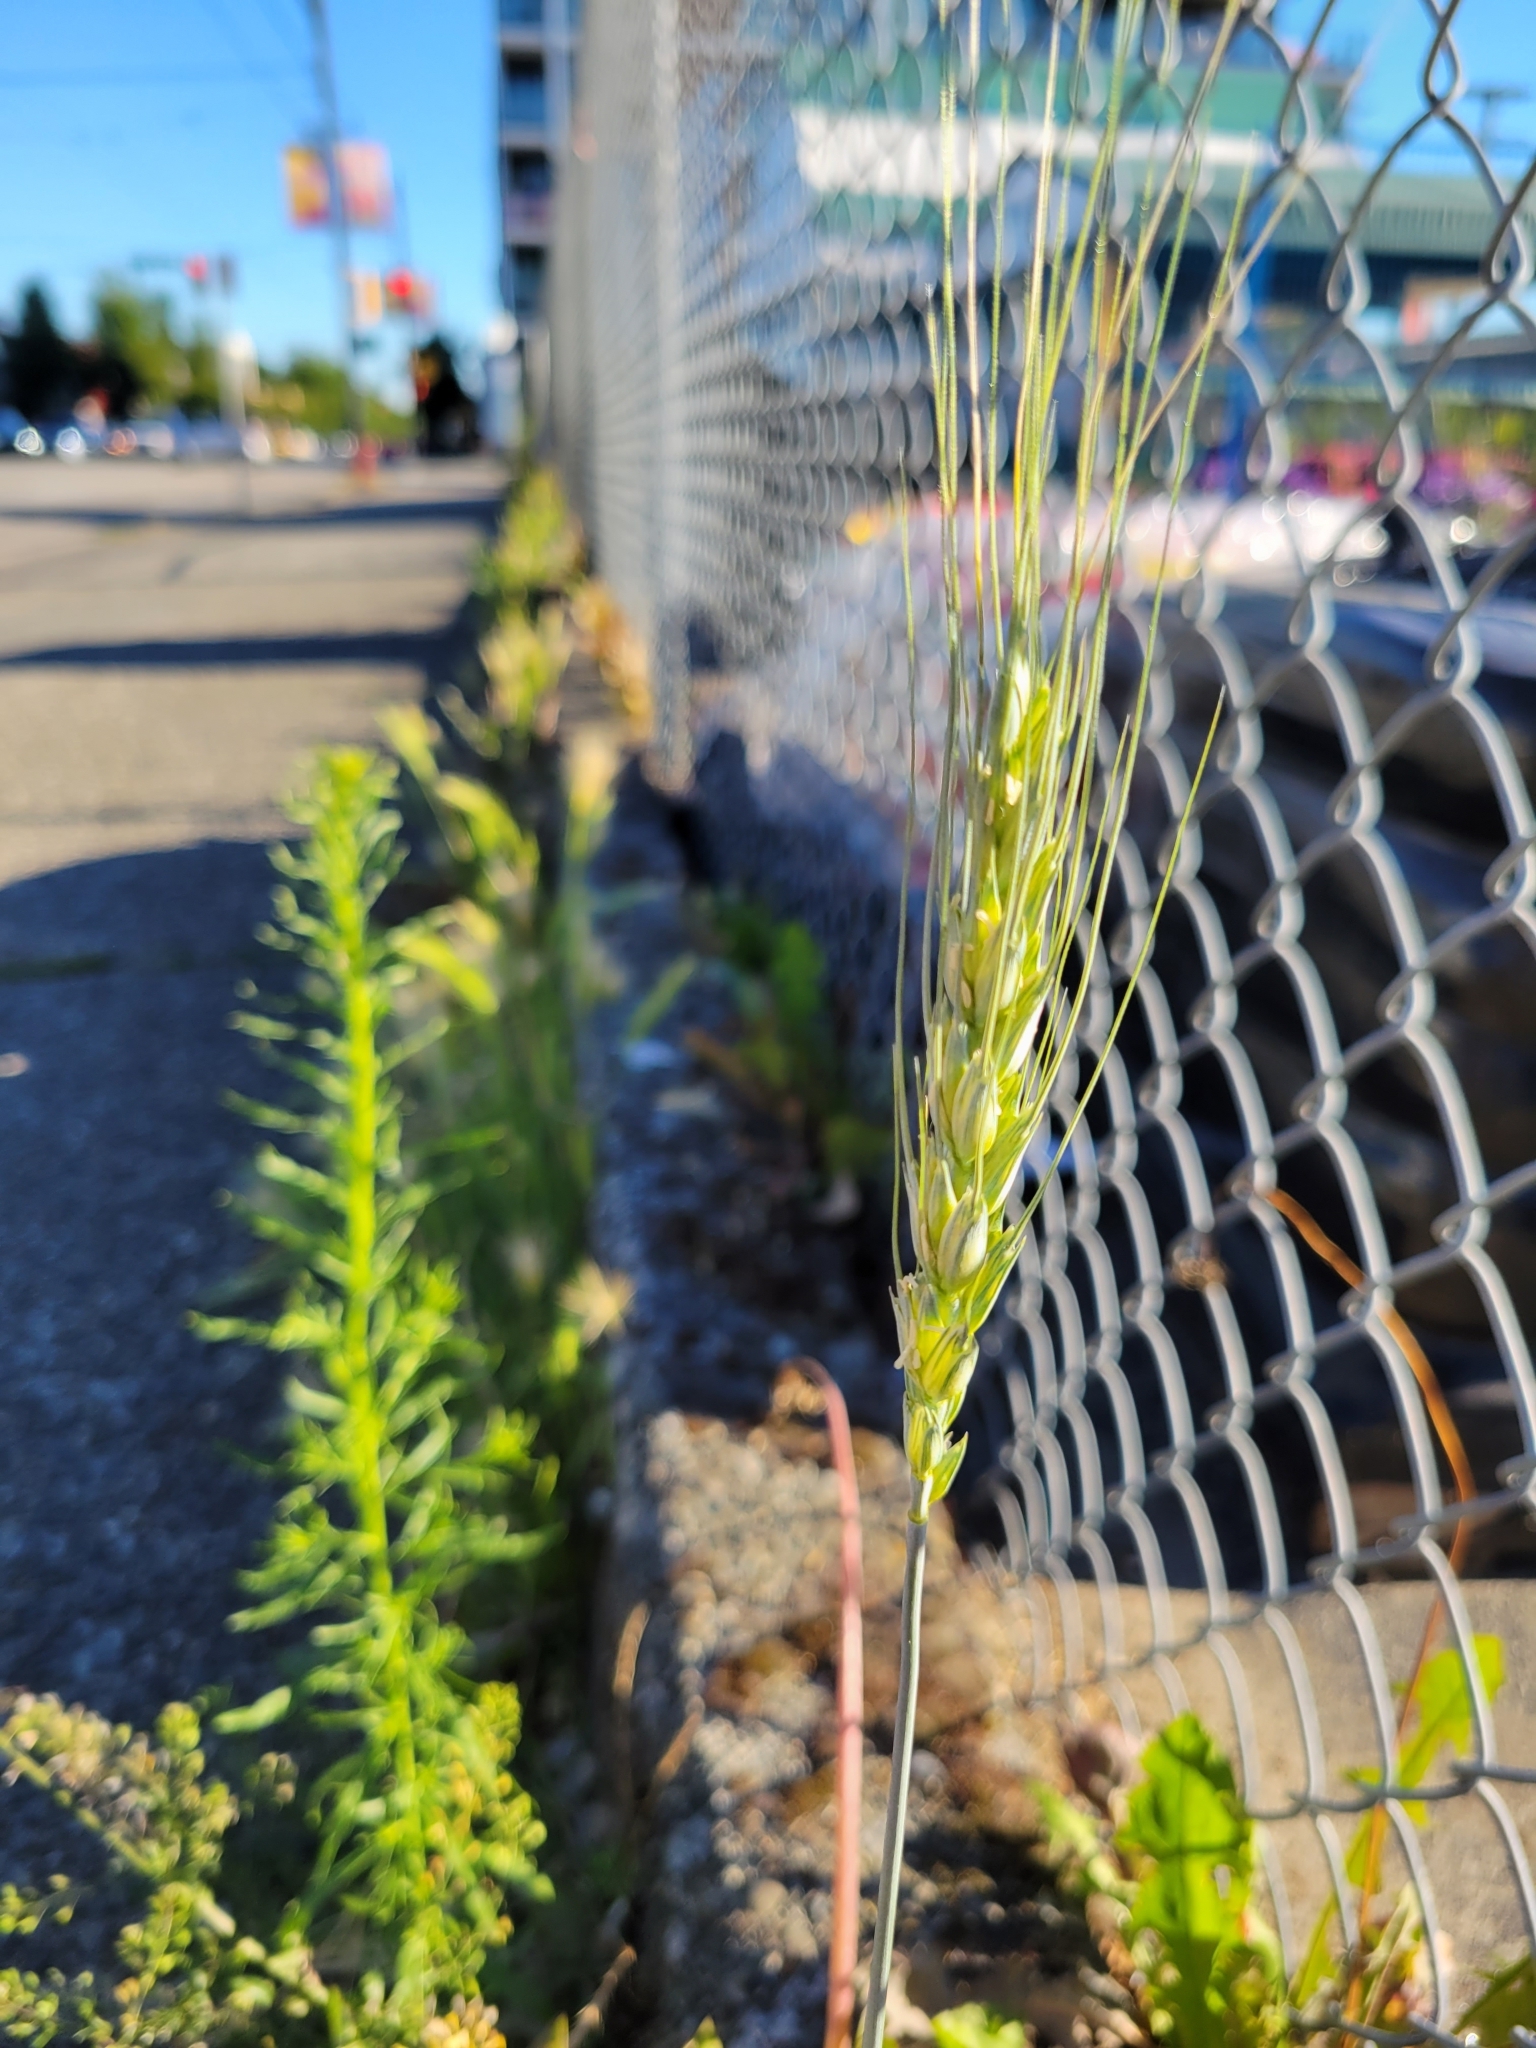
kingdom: Plantae
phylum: Tracheophyta
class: Liliopsida
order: Poales
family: Poaceae
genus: Triticum
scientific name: Triticum aestivum
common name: Common wheat
